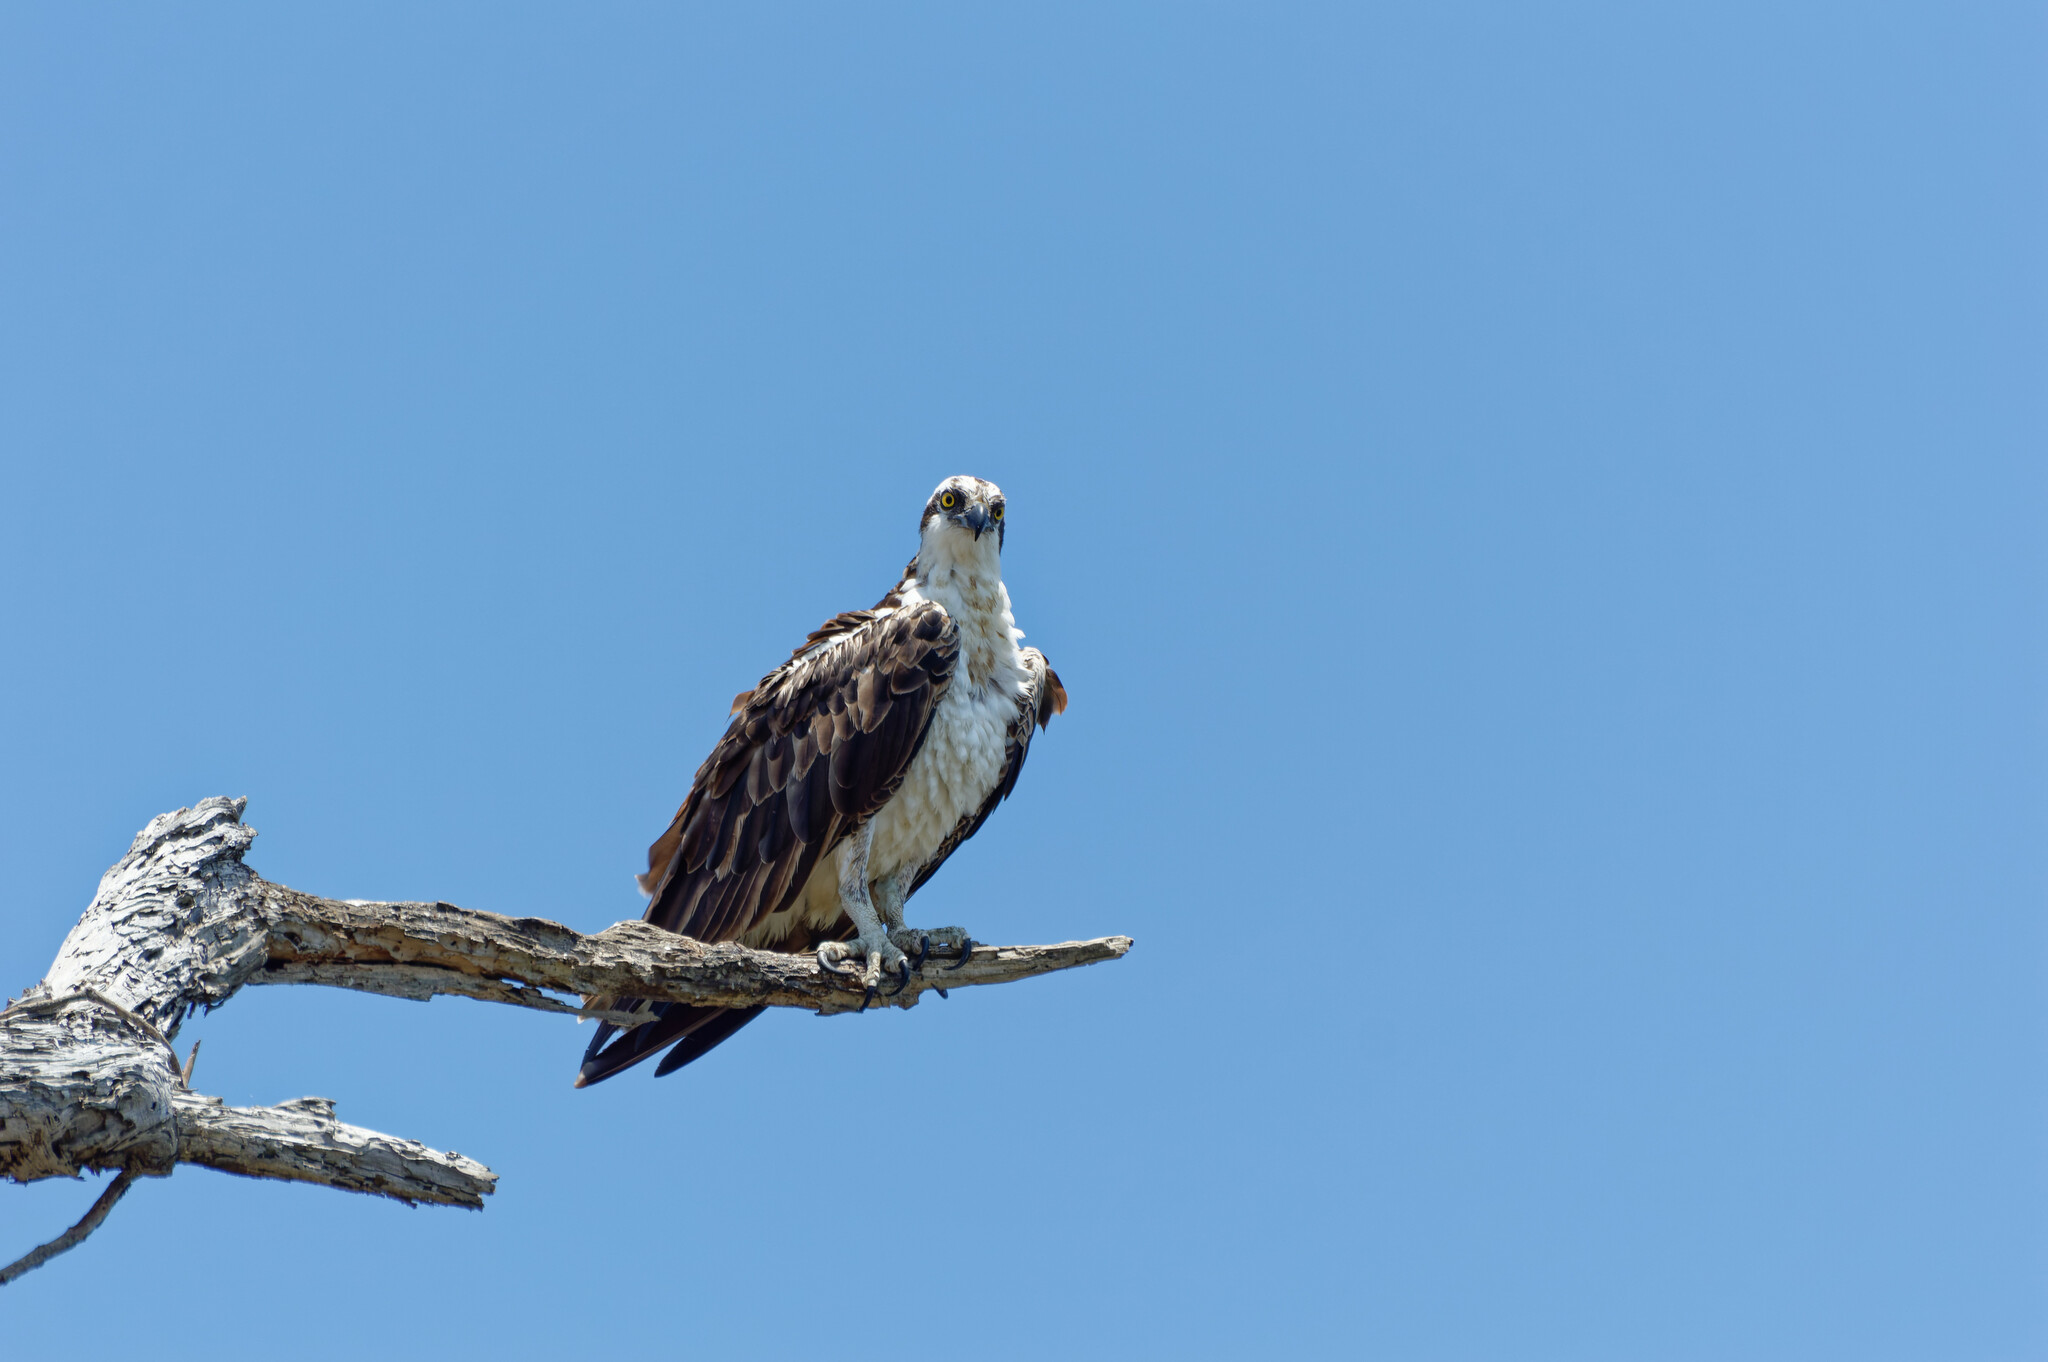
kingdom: Animalia
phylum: Chordata
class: Aves
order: Accipitriformes
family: Pandionidae
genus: Pandion
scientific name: Pandion haliaetus
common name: Osprey
